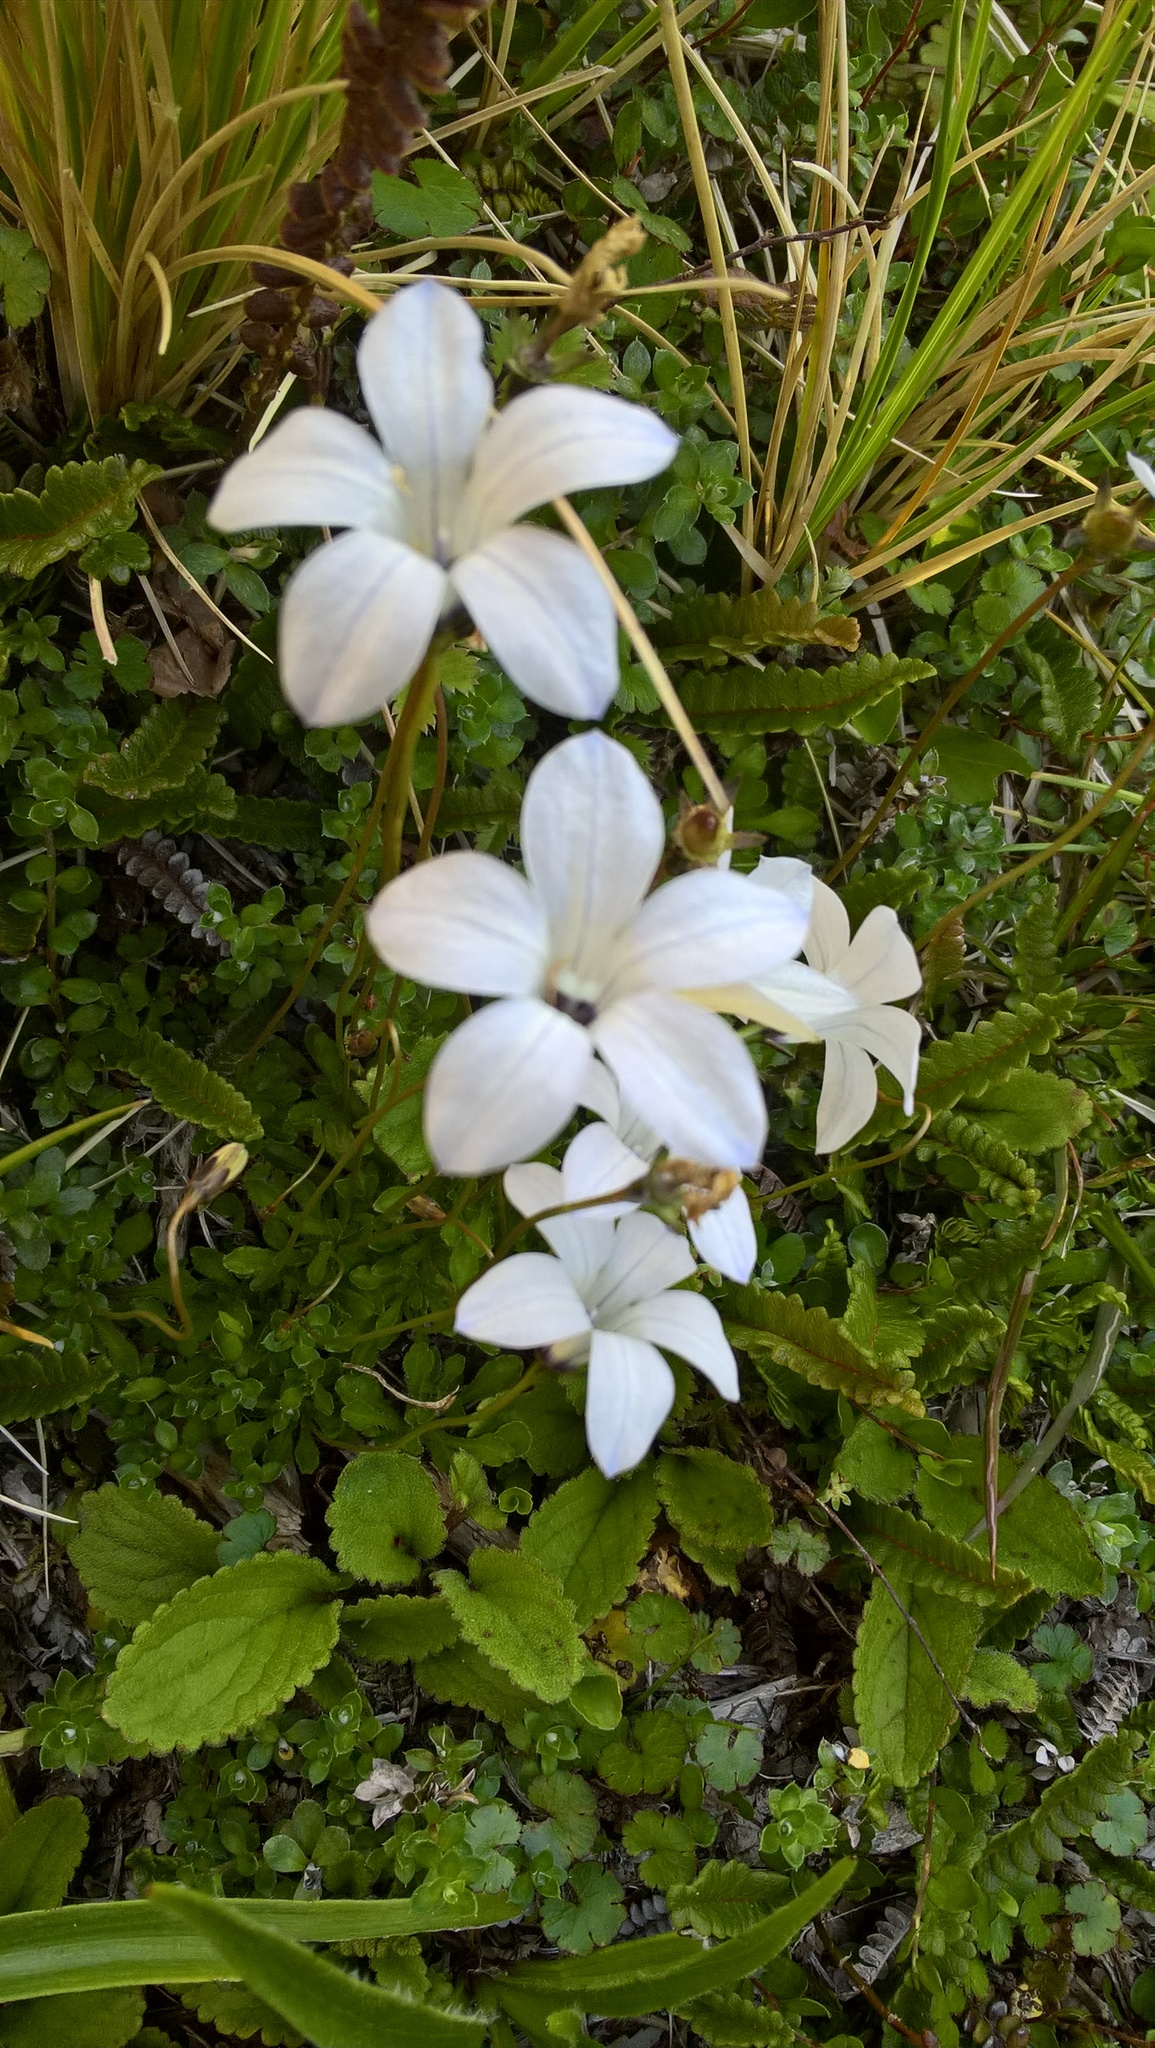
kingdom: Plantae
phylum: Tracheophyta
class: Magnoliopsida
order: Asterales
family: Campanulaceae
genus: Wahlenbergia
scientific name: Wahlenbergia albomarginata
